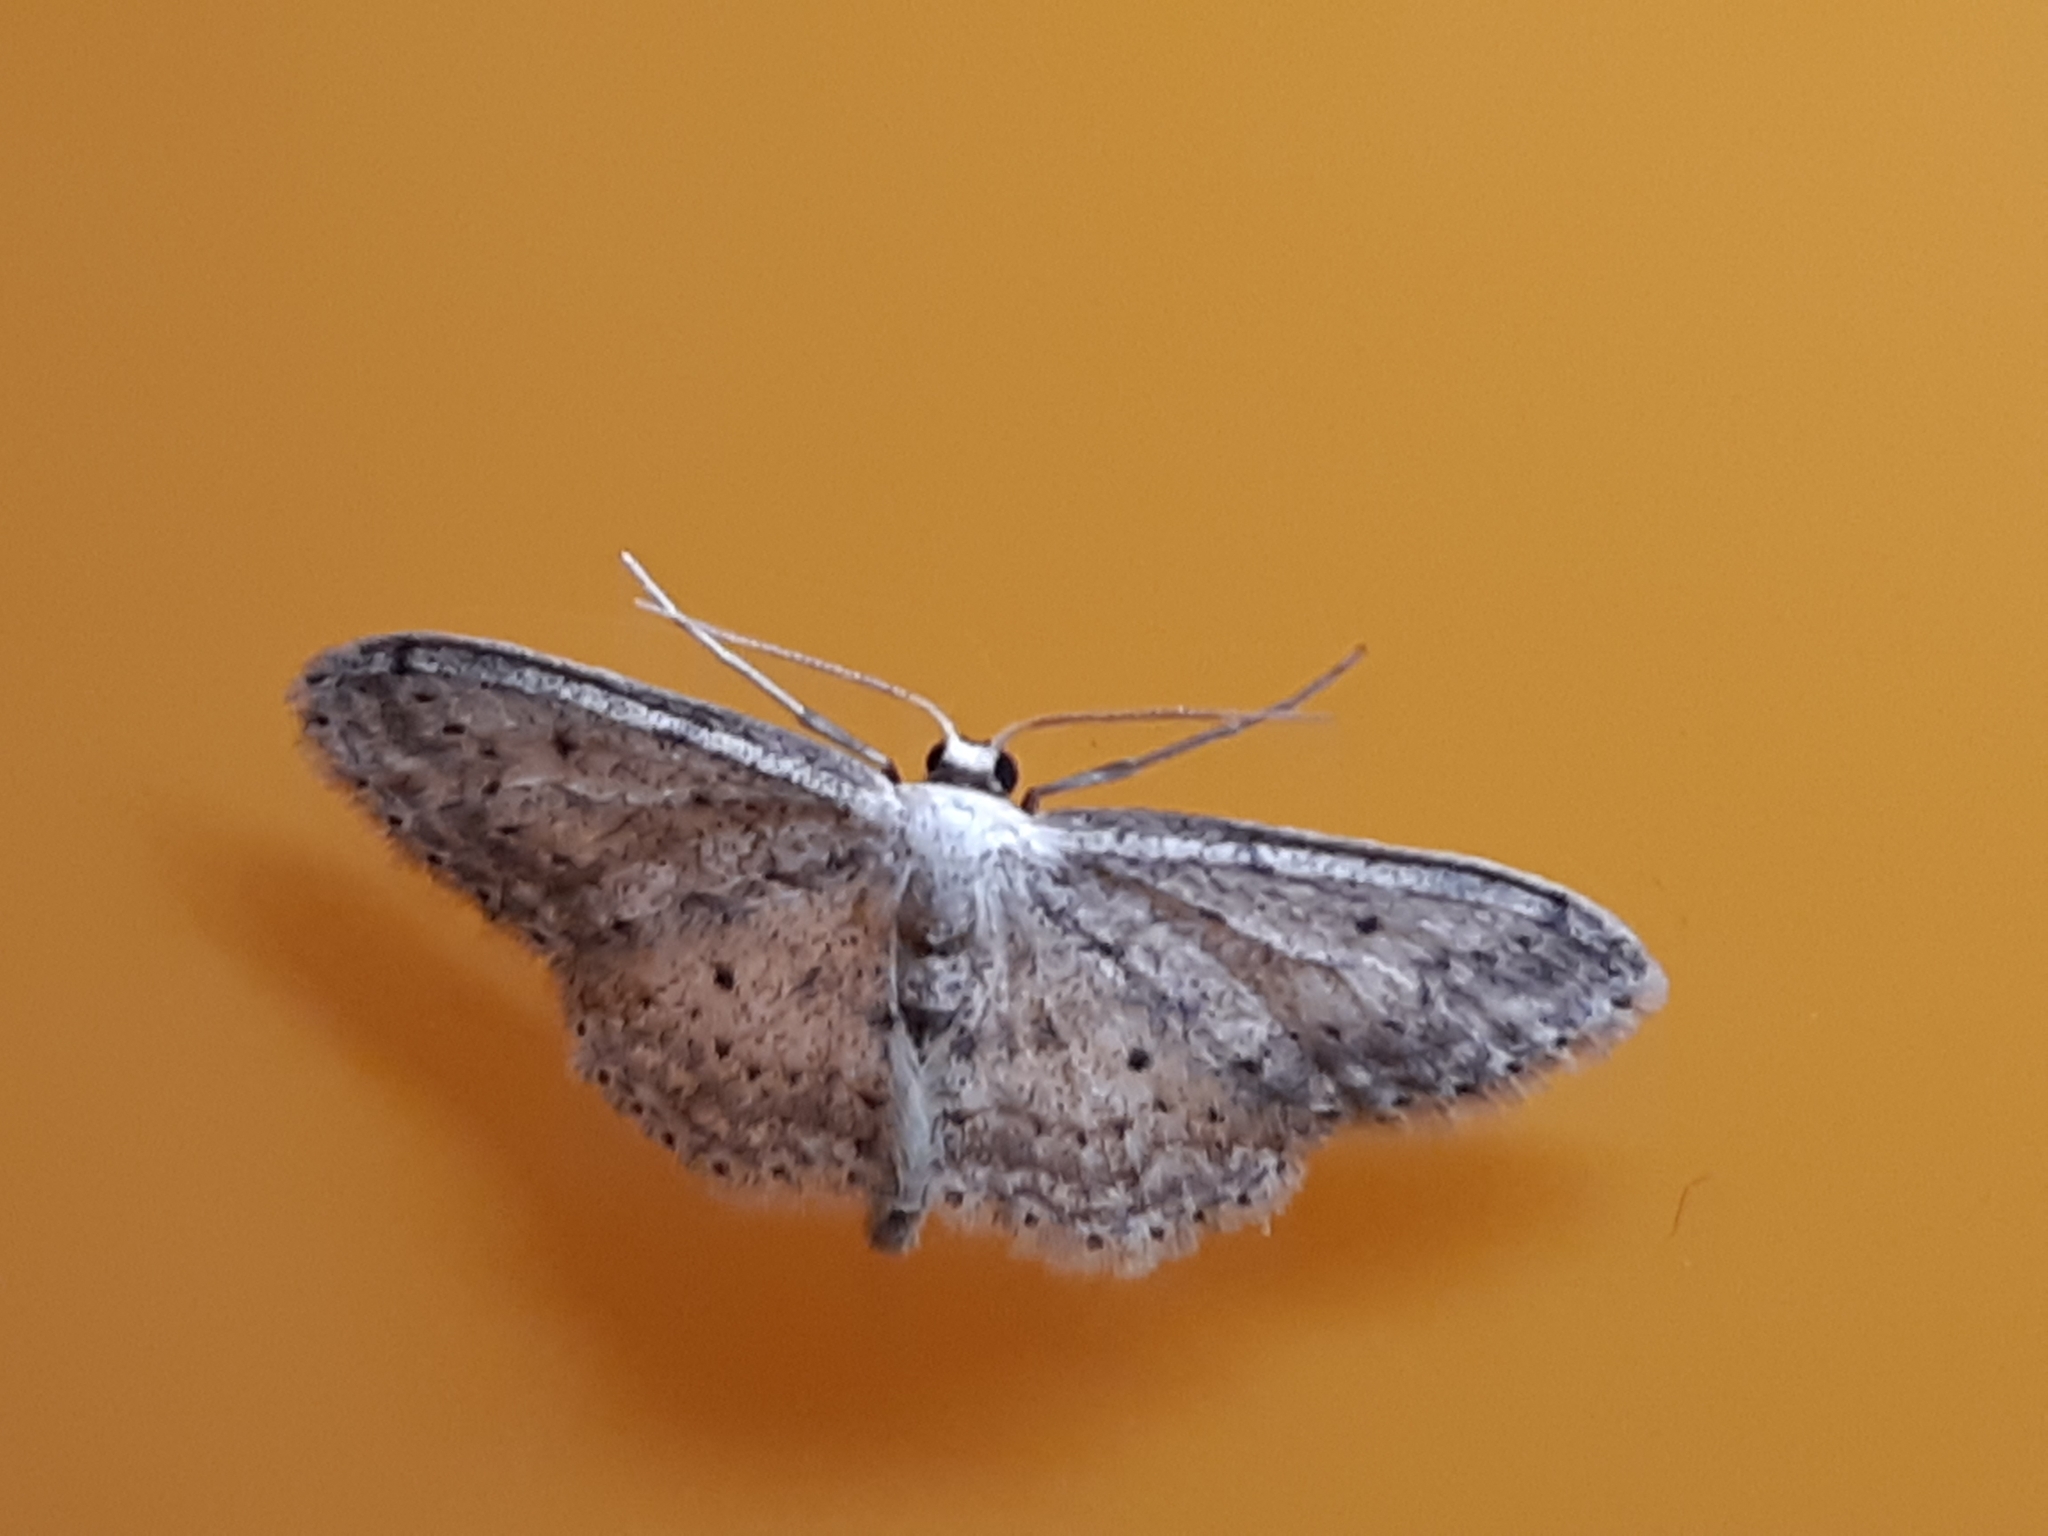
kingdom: Animalia
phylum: Arthropoda
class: Insecta
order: Lepidoptera
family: Geometridae
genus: Idaea
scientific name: Idaea seriata
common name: Small dusty wave
